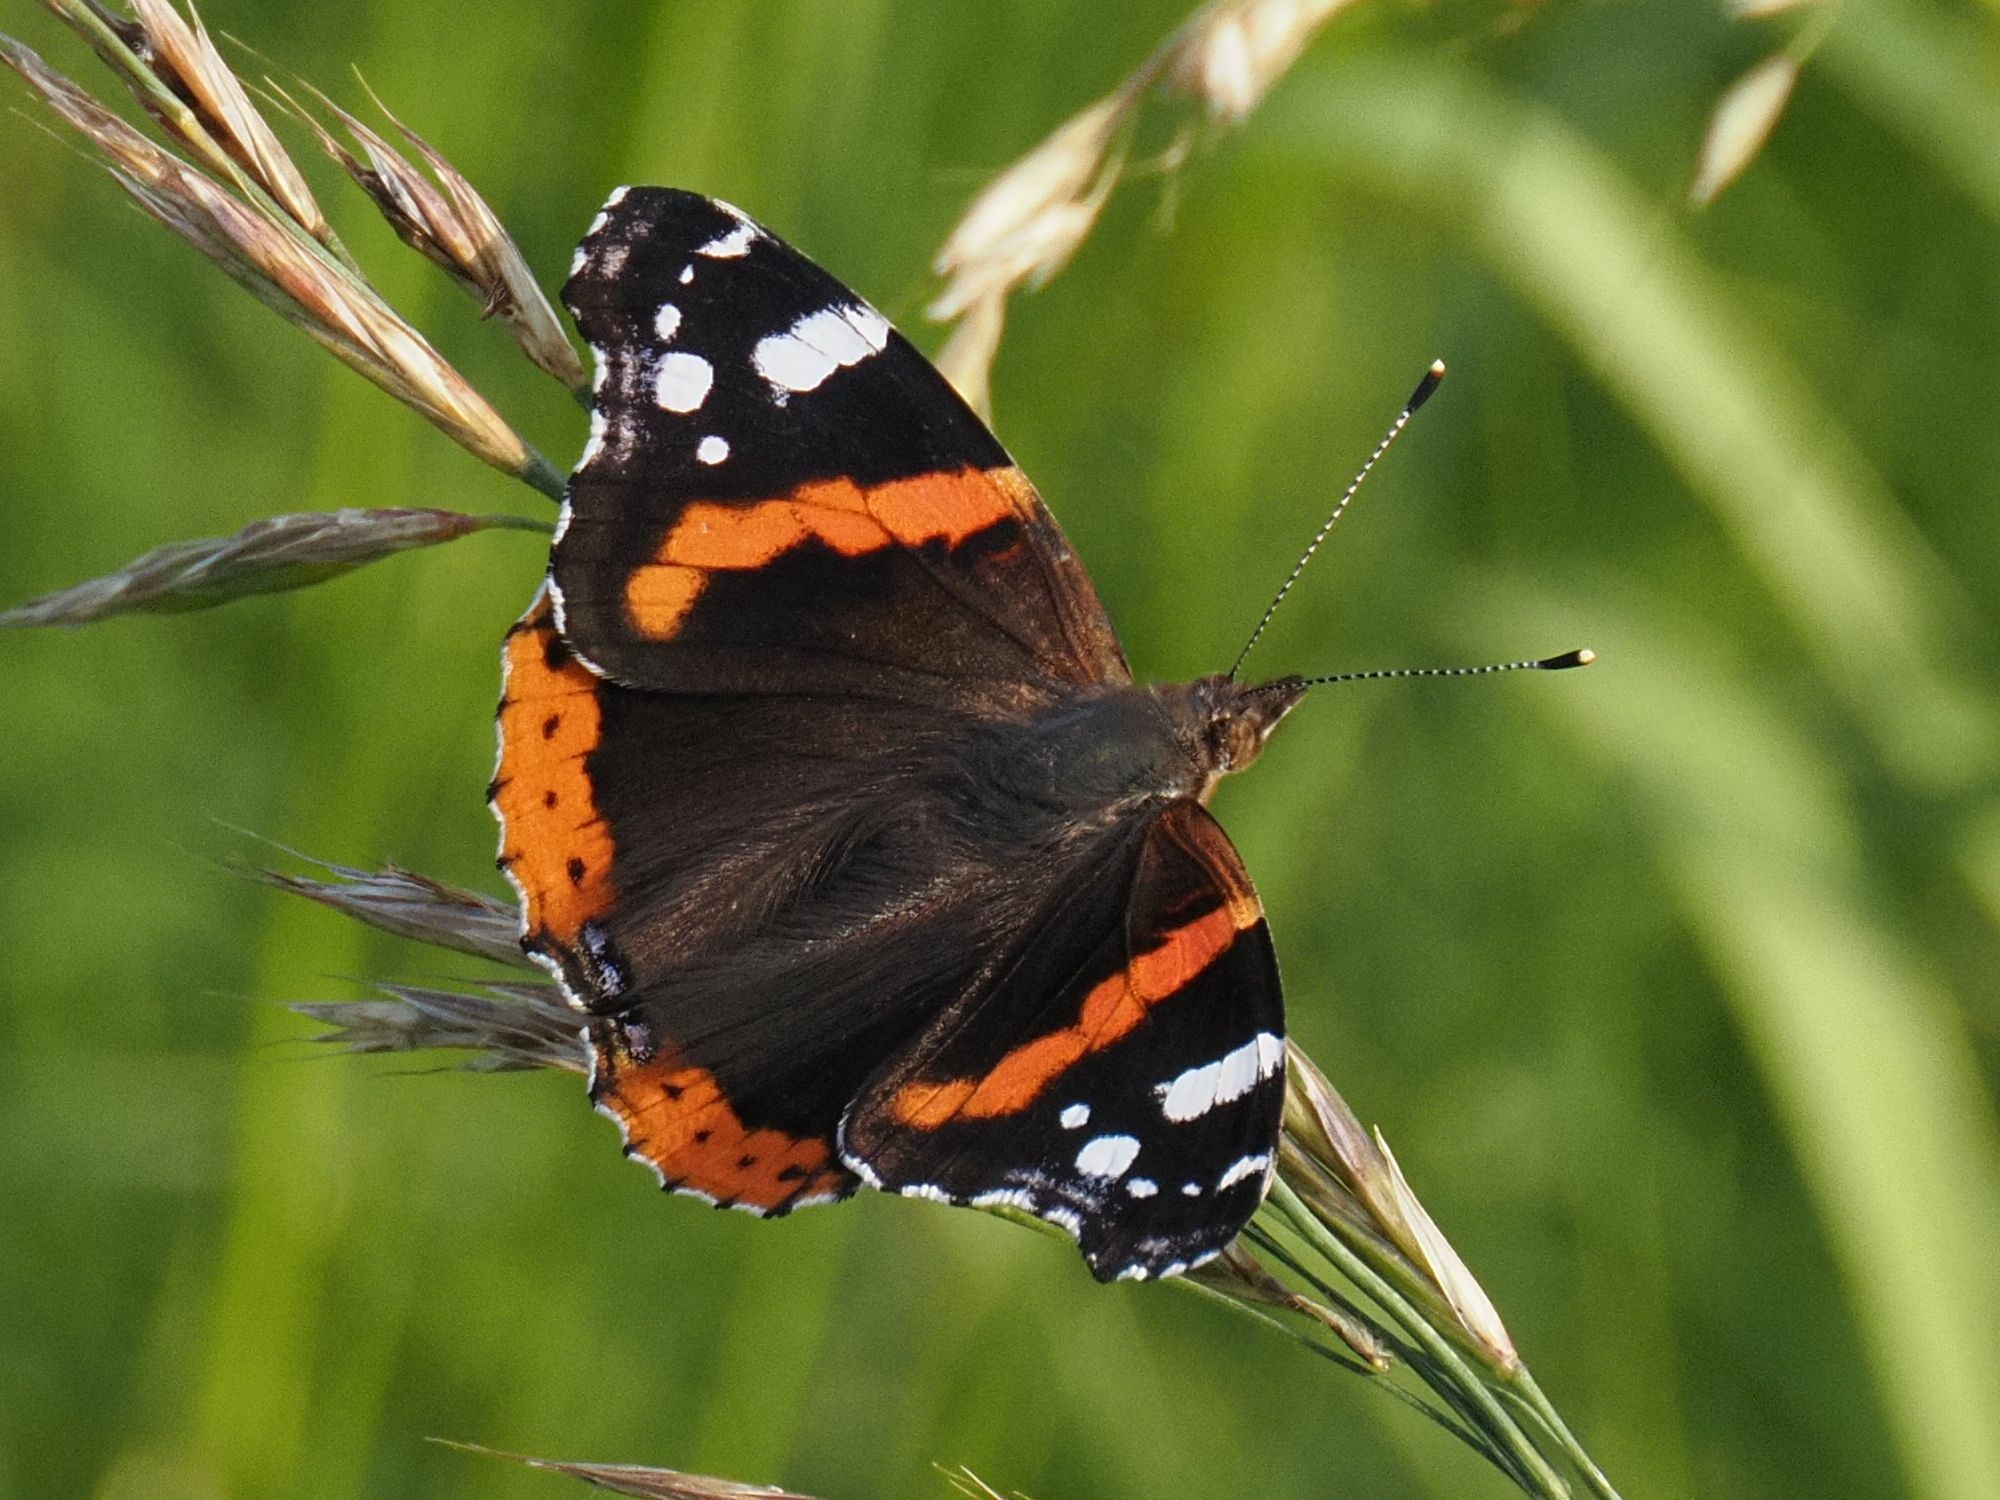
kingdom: Animalia
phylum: Arthropoda
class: Insecta
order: Lepidoptera
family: Nymphalidae
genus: Vanessa
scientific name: Vanessa atalanta
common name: Red admiral
